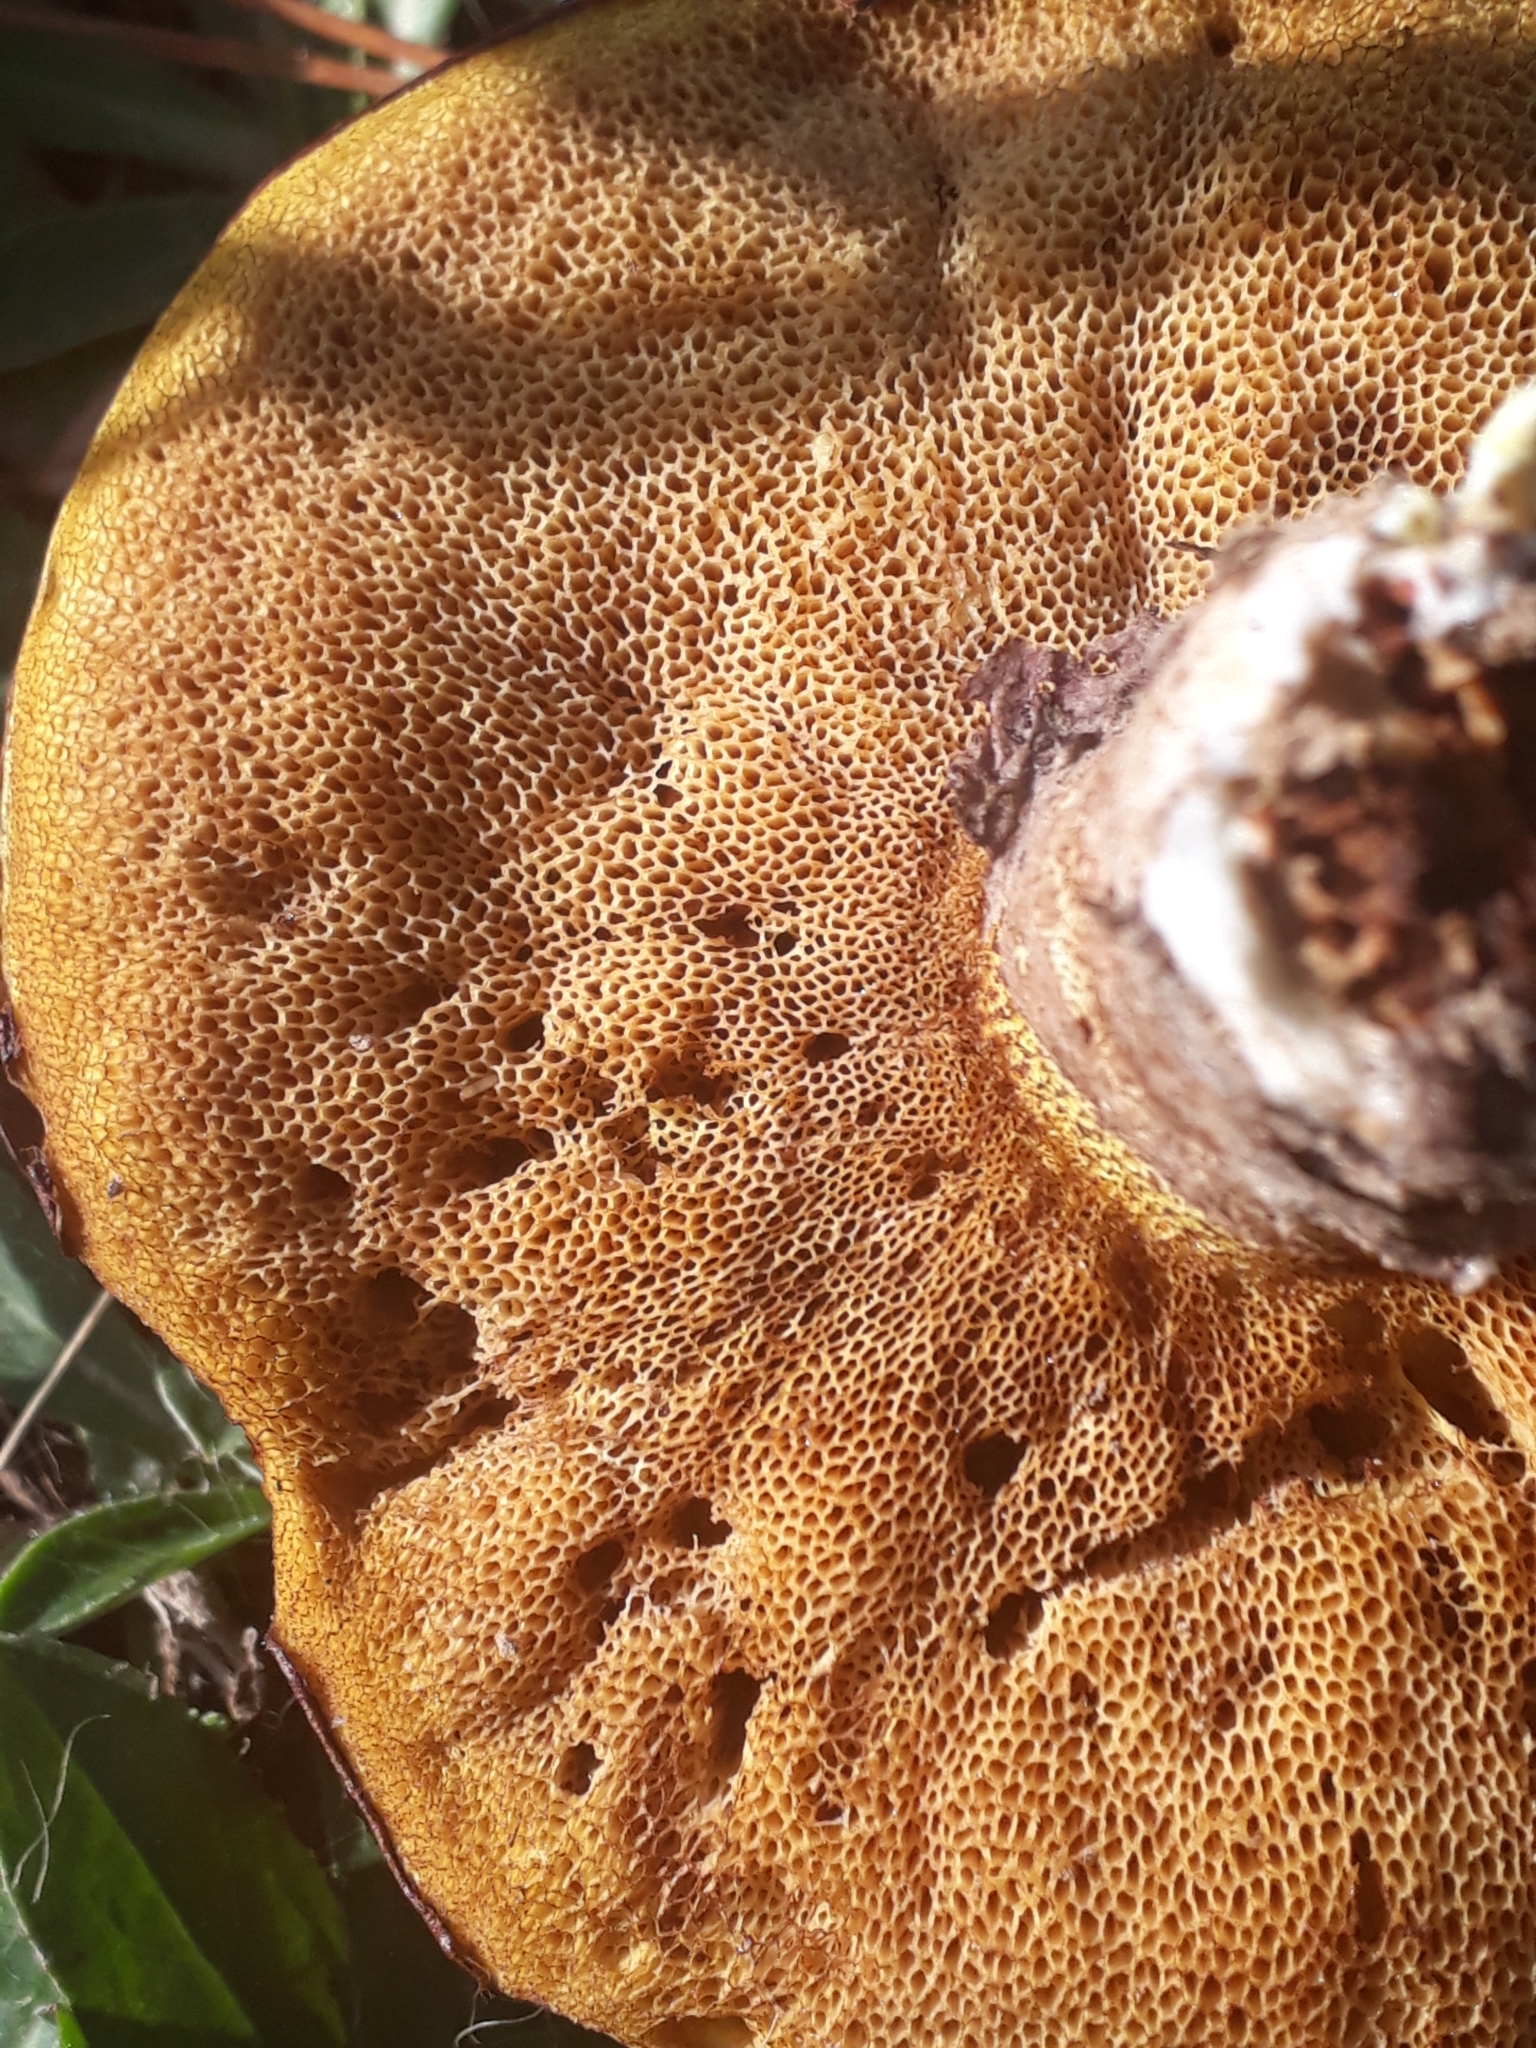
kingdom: Fungi
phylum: Basidiomycota
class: Agaricomycetes
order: Boletales
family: Suillaceae
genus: Suillus
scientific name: Suillus luteus
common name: Slippery jack
